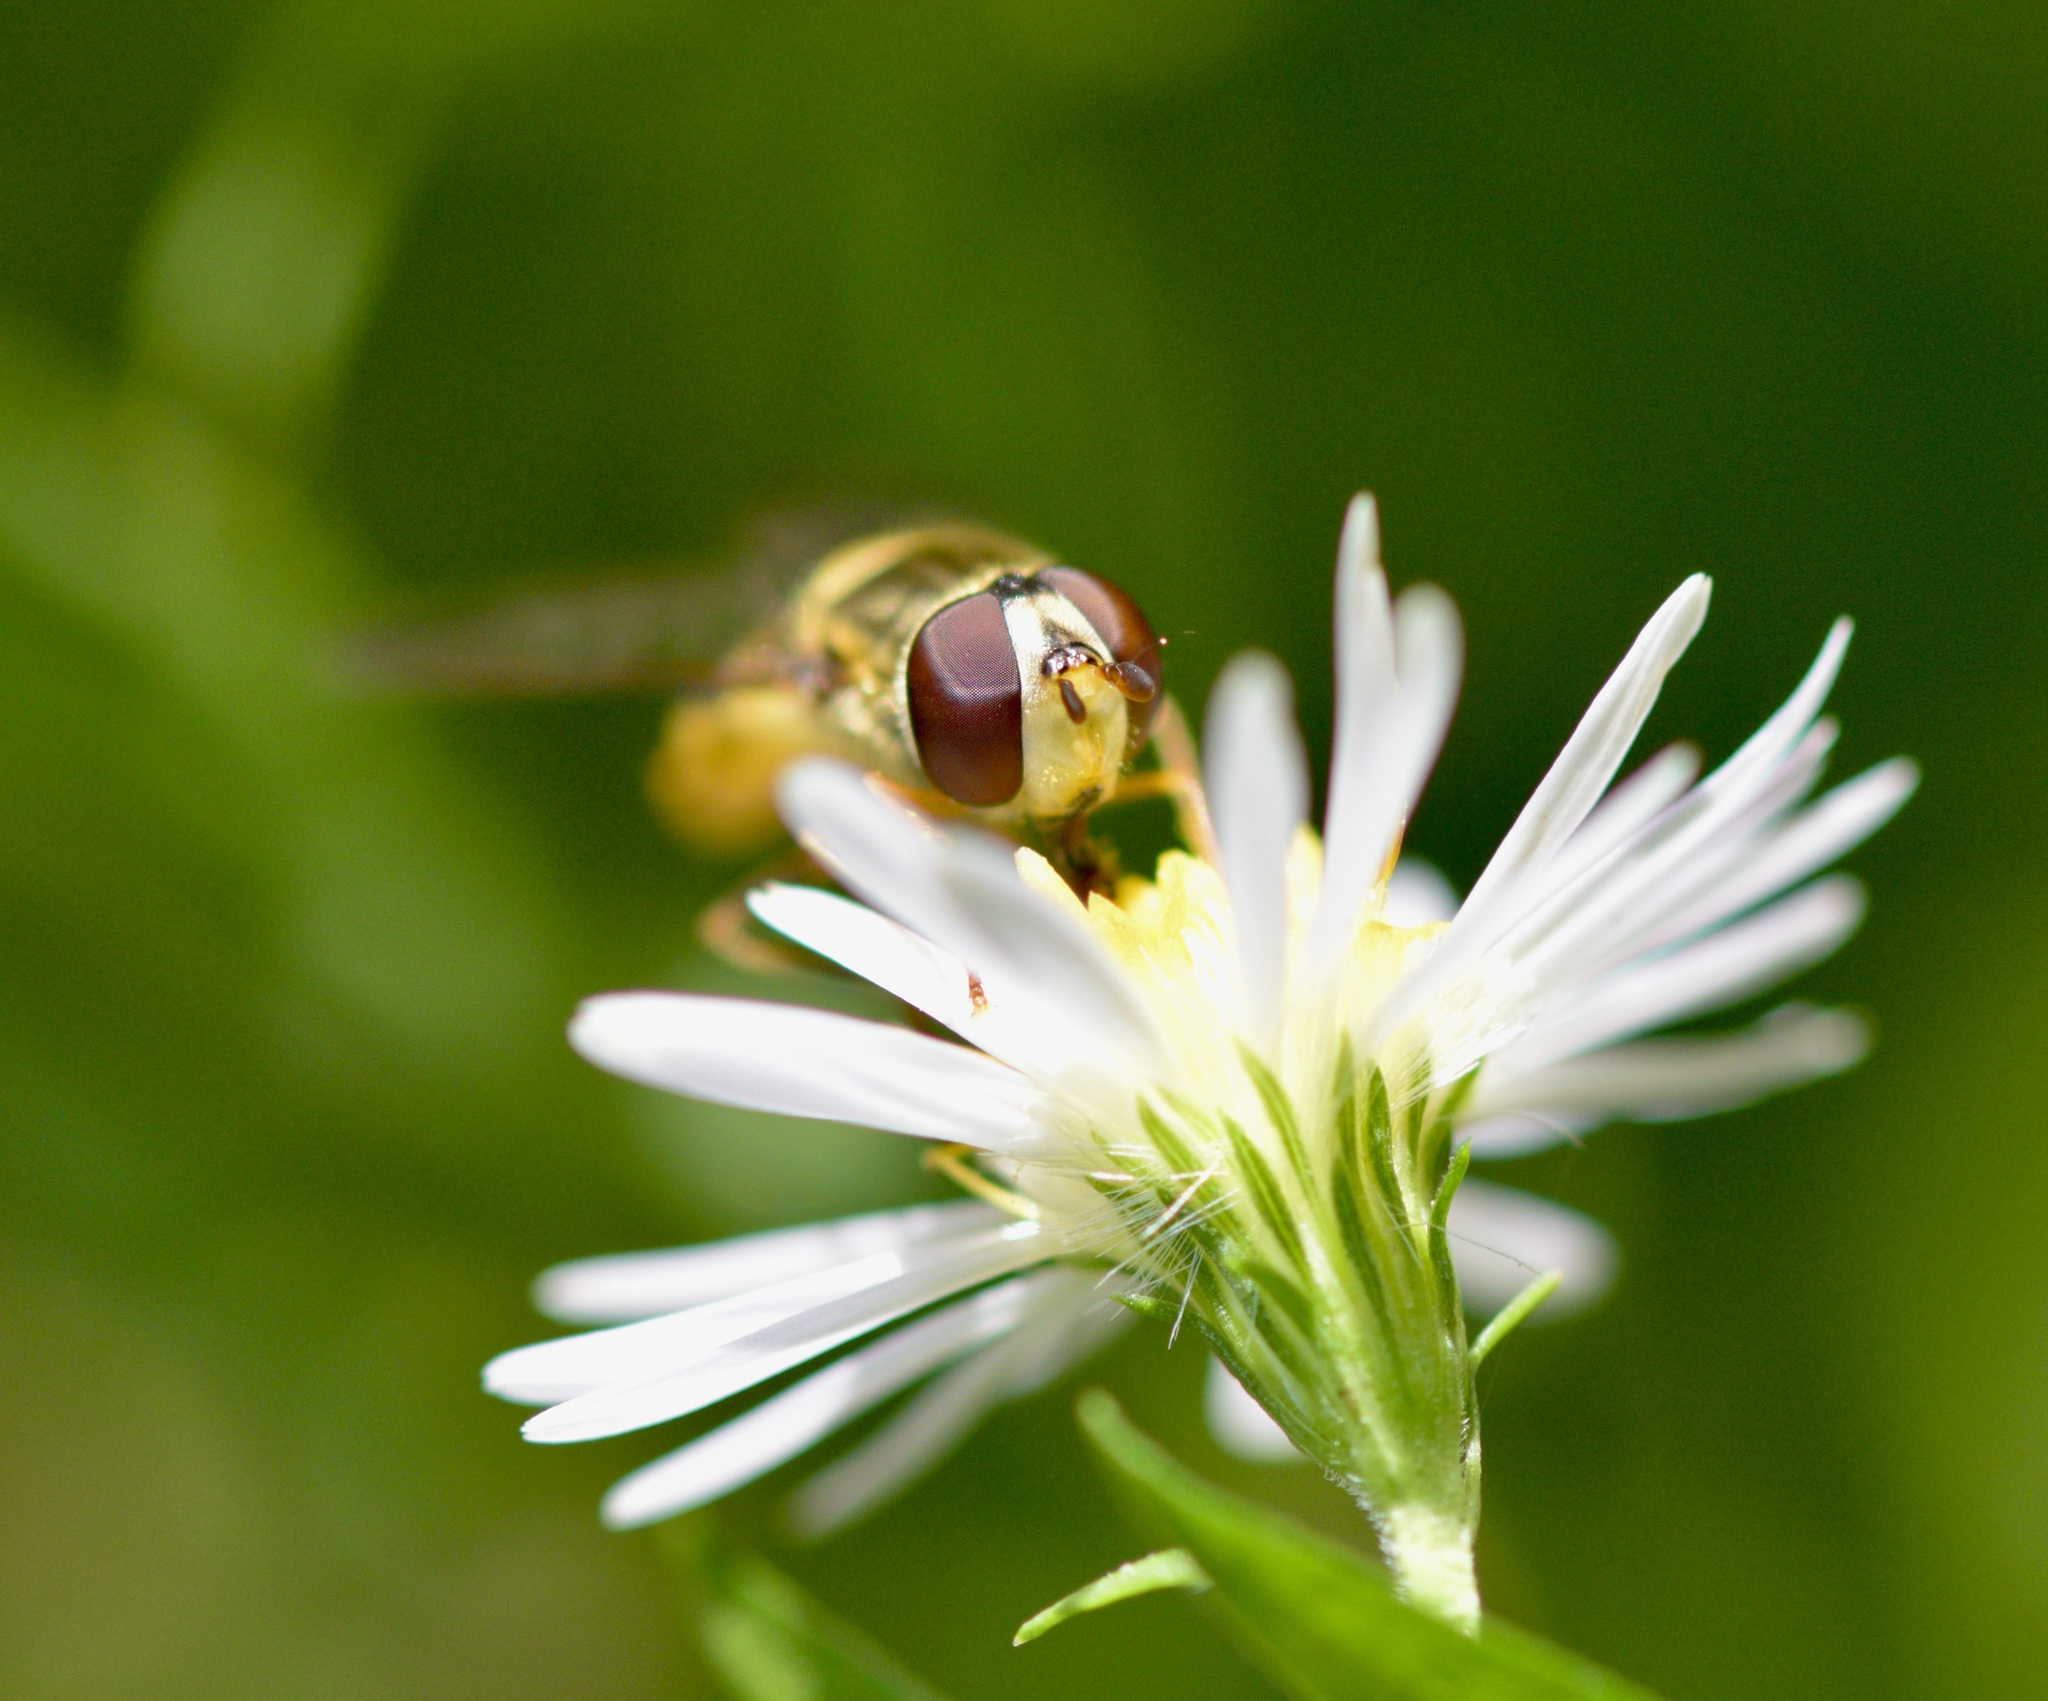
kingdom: Animalia
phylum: Arthropoda
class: Insecta
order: Diptera
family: Syrphidae
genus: Syrphus
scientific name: Syrphus rectus
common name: Yellow-legged flower fly
